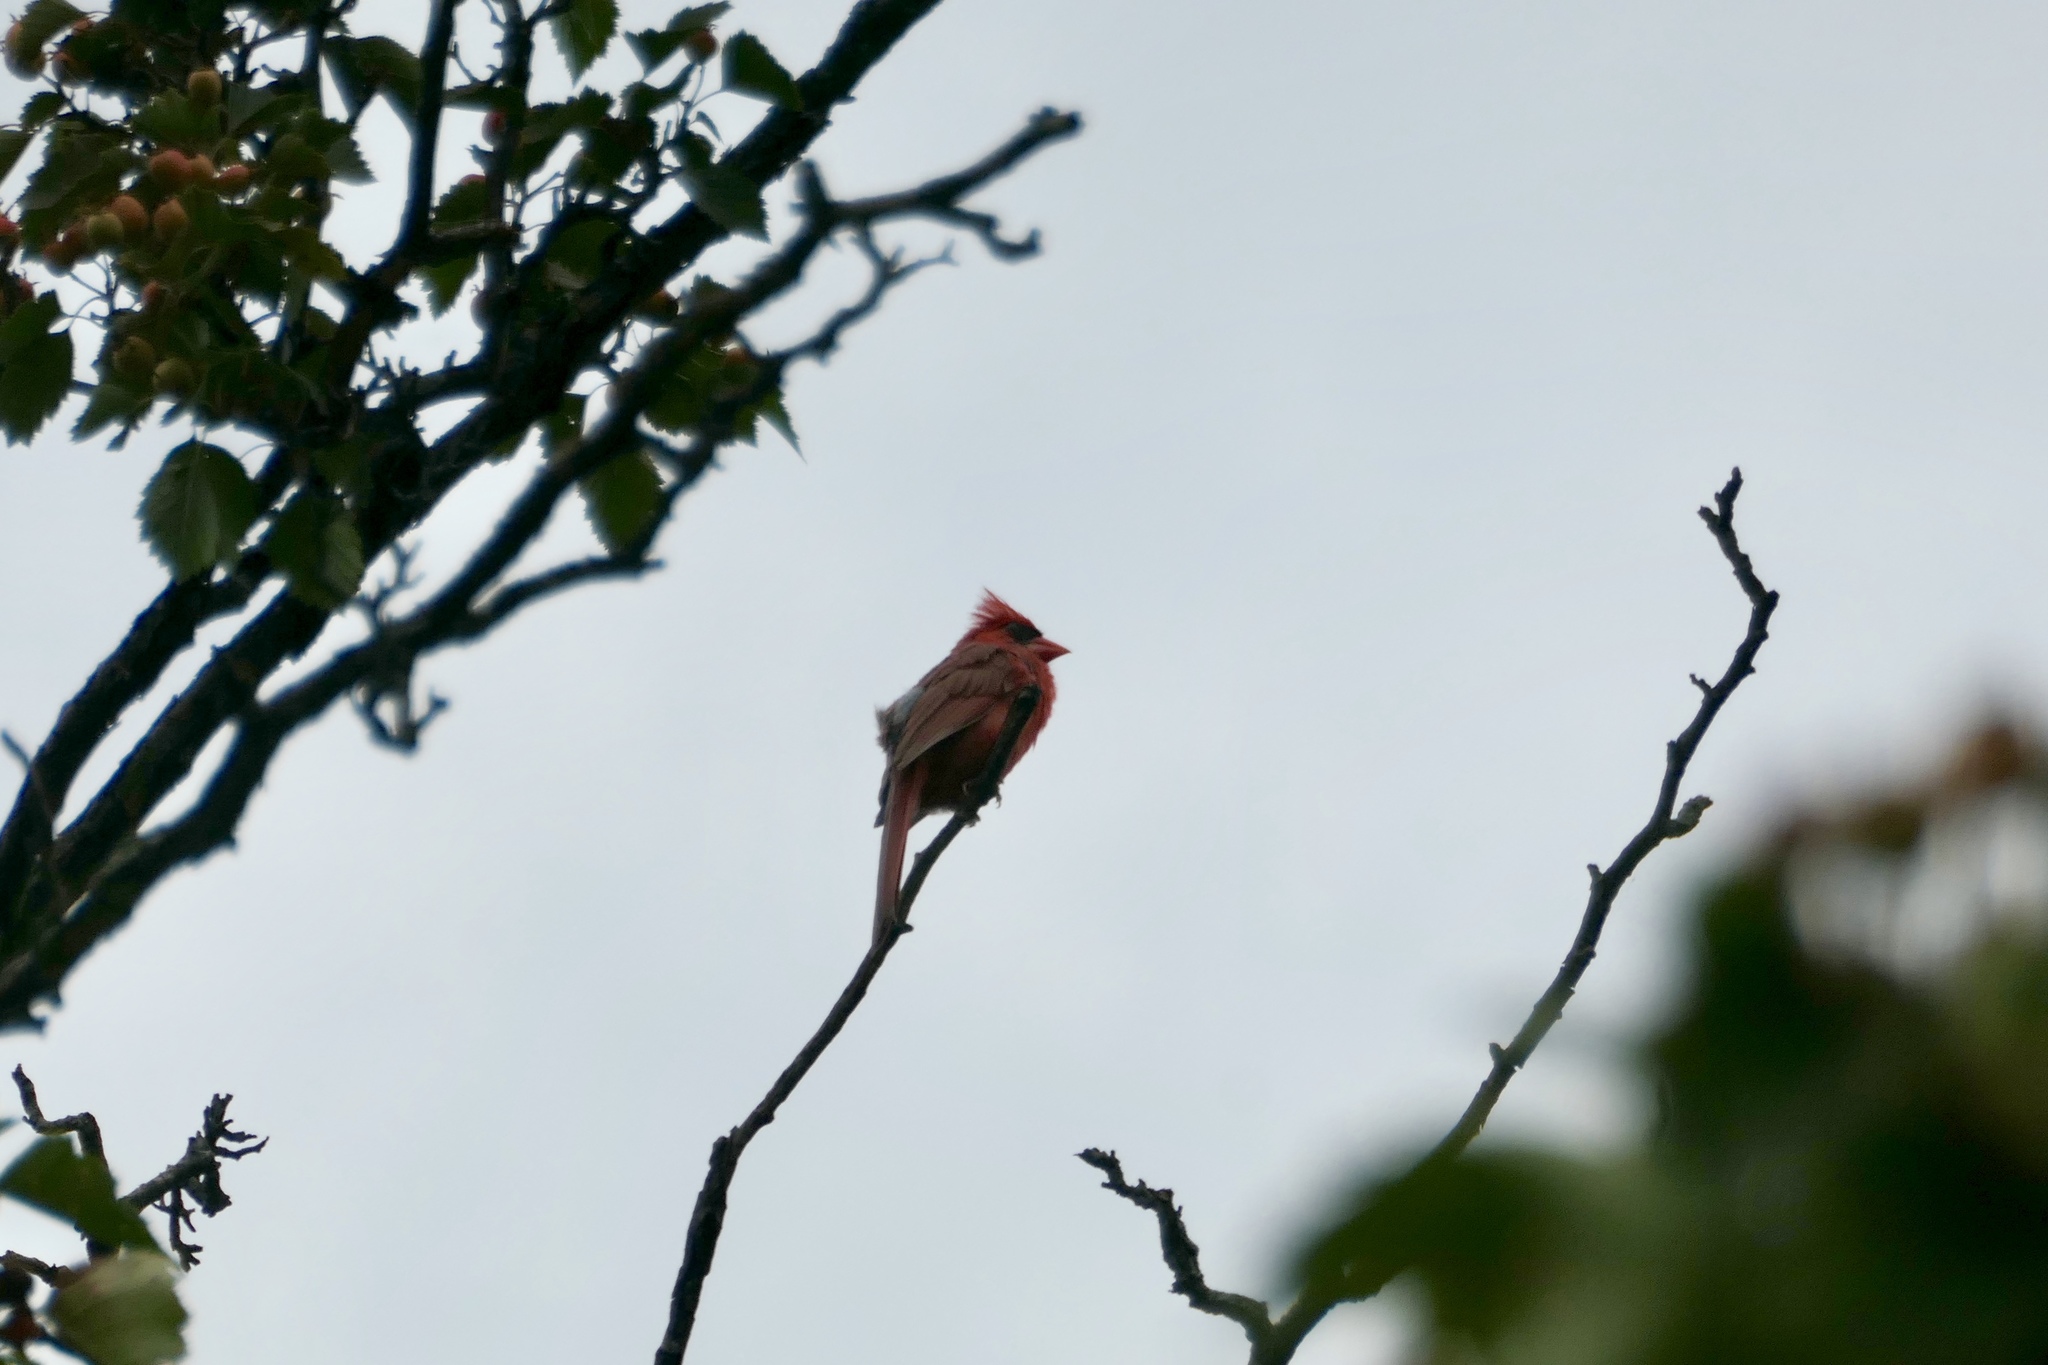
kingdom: Animalia
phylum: Chordata
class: Aves
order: Passeriformes
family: Cardinalidae
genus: Cardinalis
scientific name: Cardinalis cardinalis
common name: Northern cardinal
